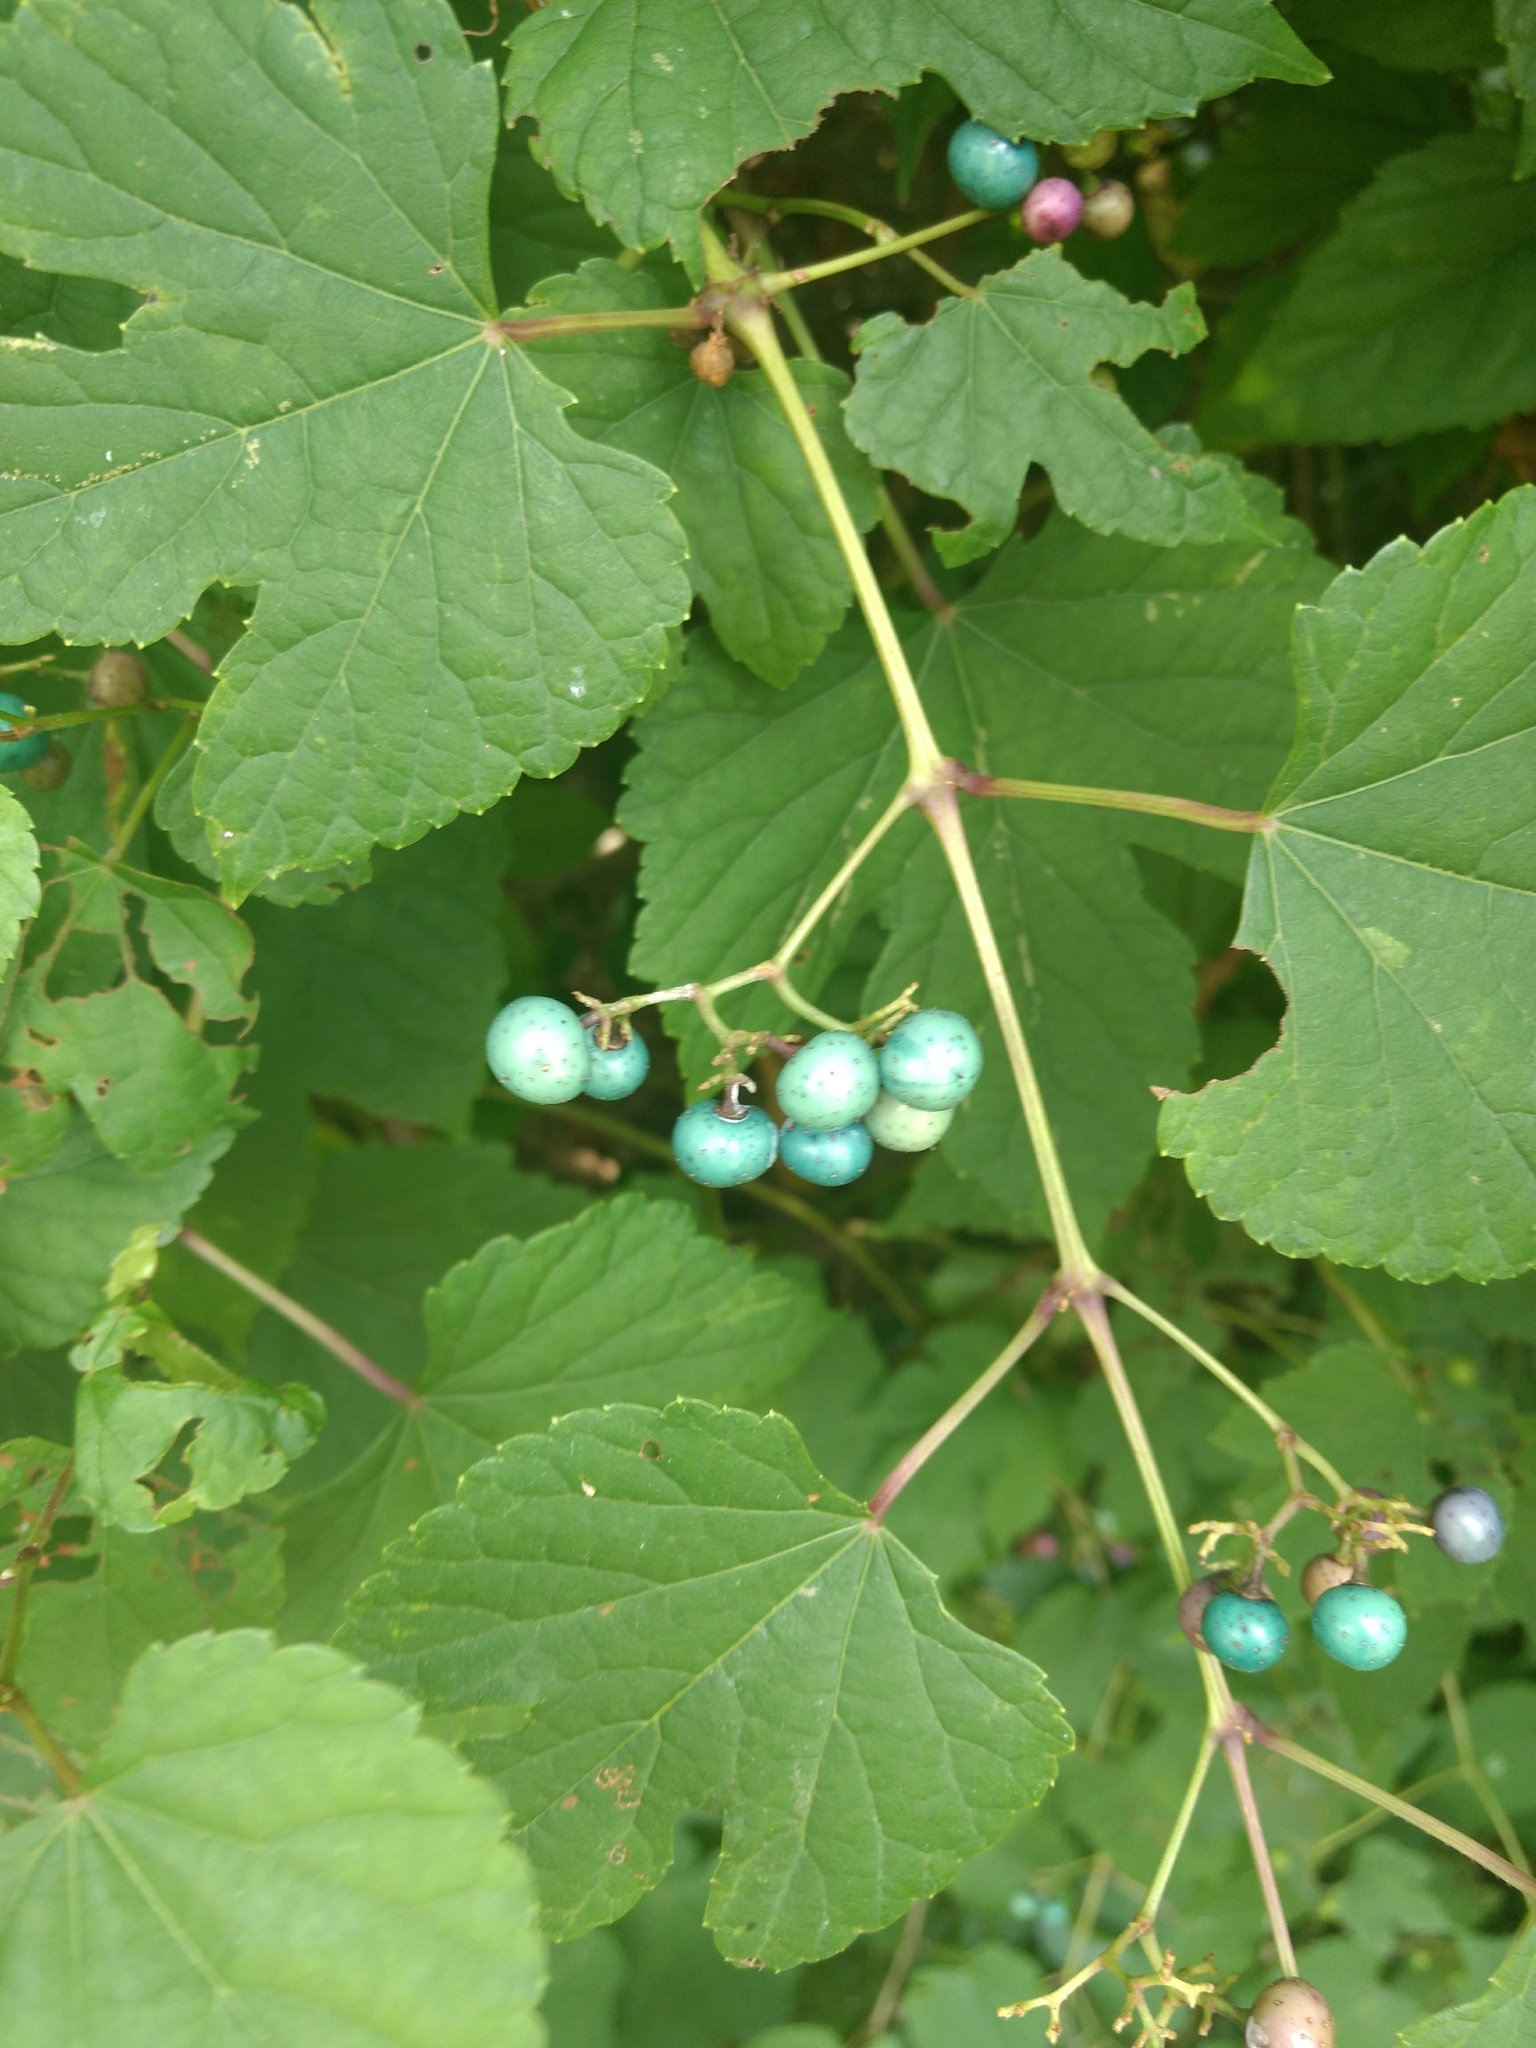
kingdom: Plantae
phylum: Tracheophyta
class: Magnoliopsida
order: Vitales
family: Vitaceae
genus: Ampelopsis
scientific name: Ampelopsis glandulosa
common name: Amur peppervine
